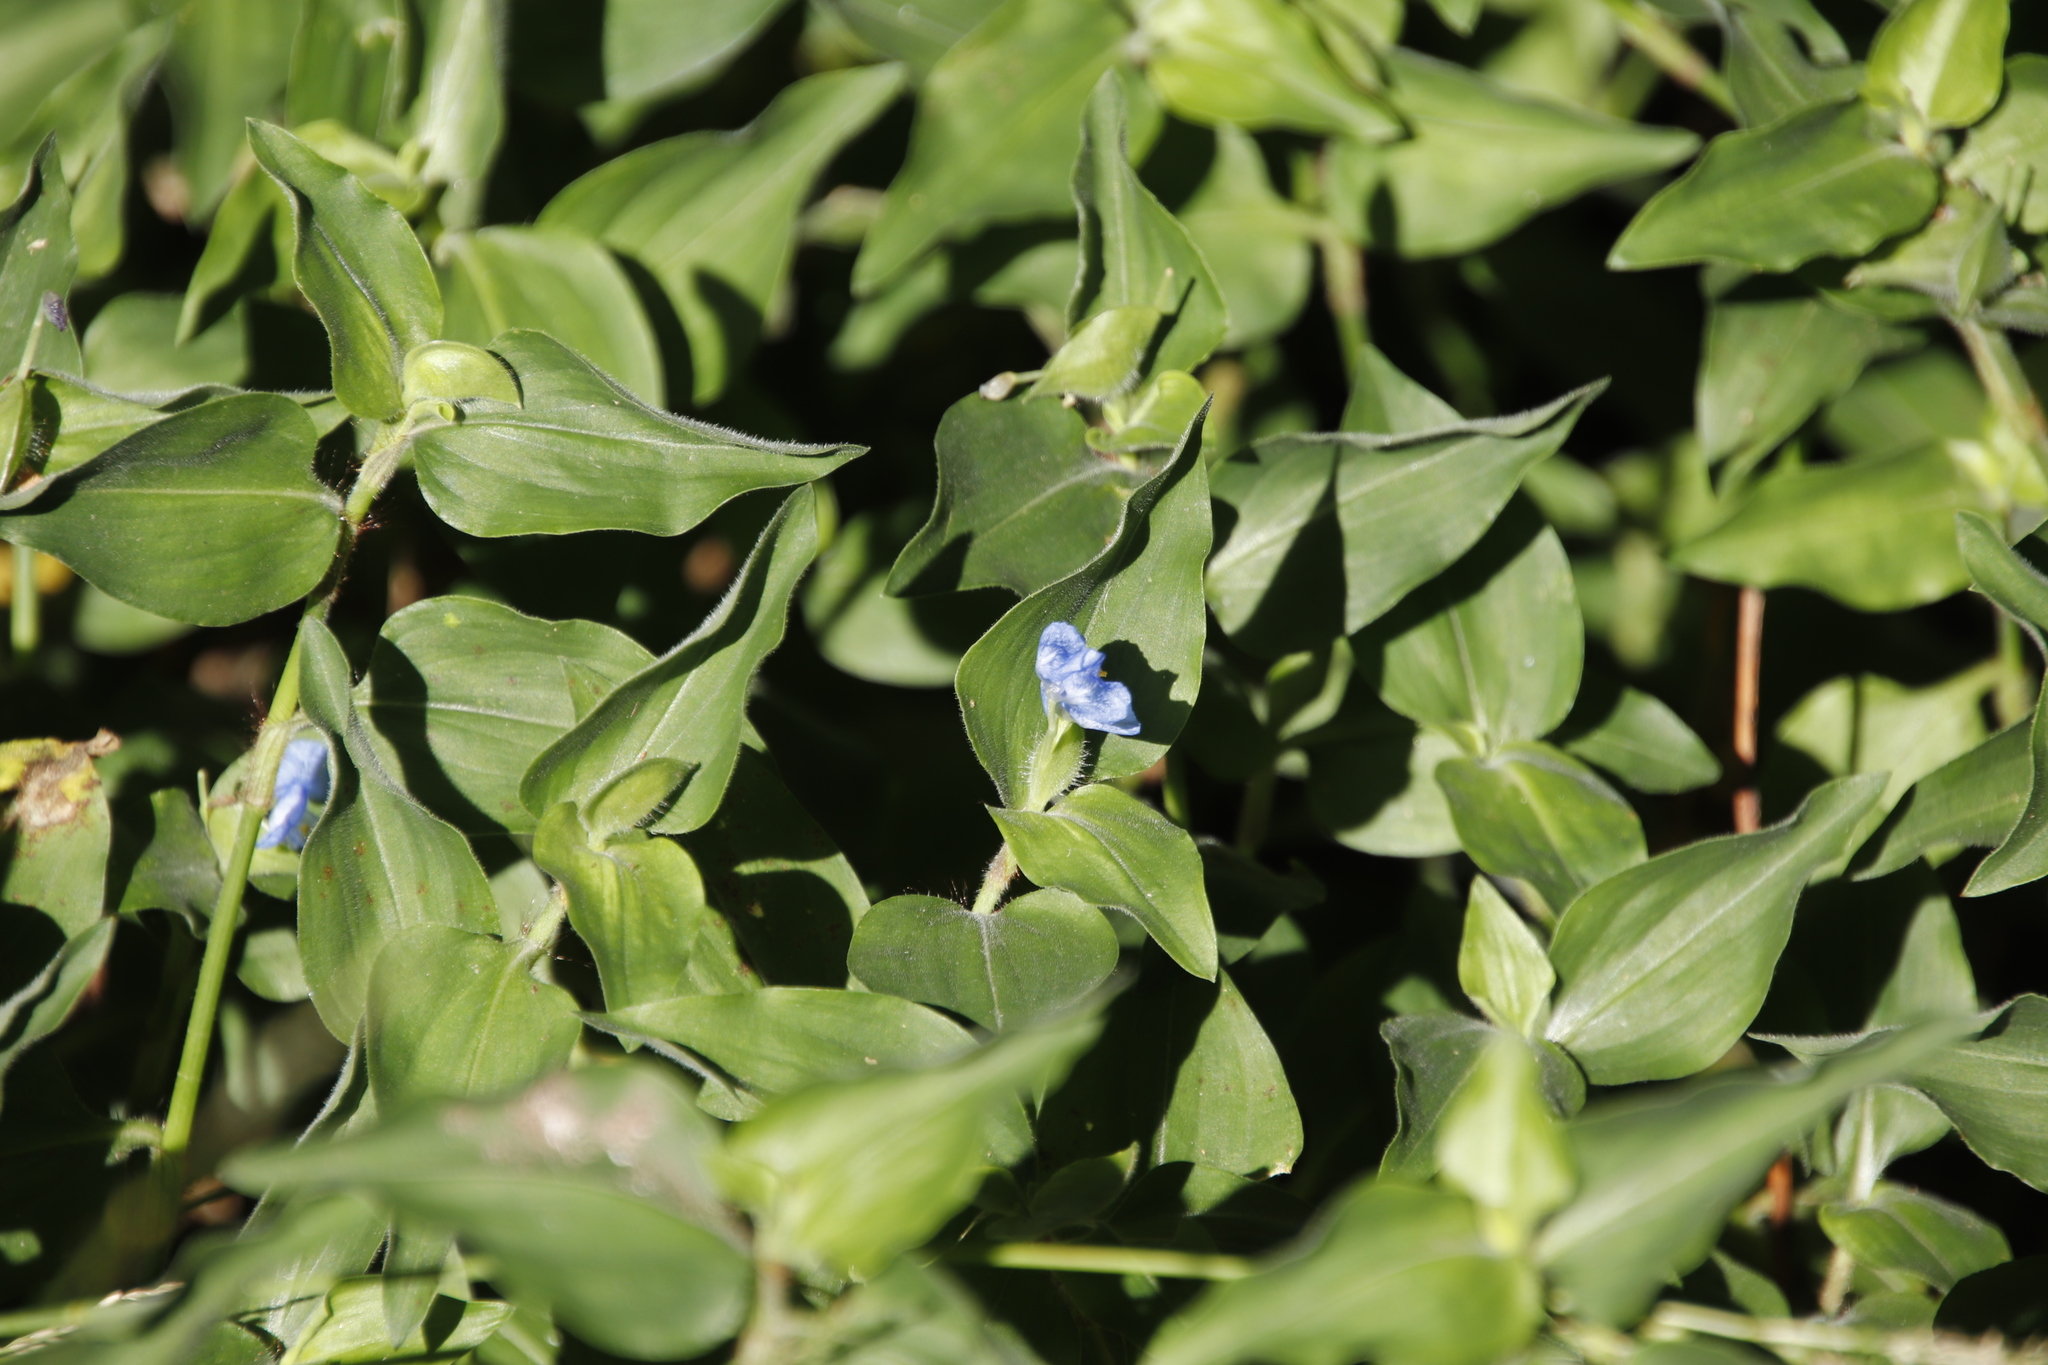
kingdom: Plantae
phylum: Tracheophyta
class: Liliopsida
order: Commelinales
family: Commelinaceae
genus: Commelina
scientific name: Commelina benghalensis
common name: Jio
